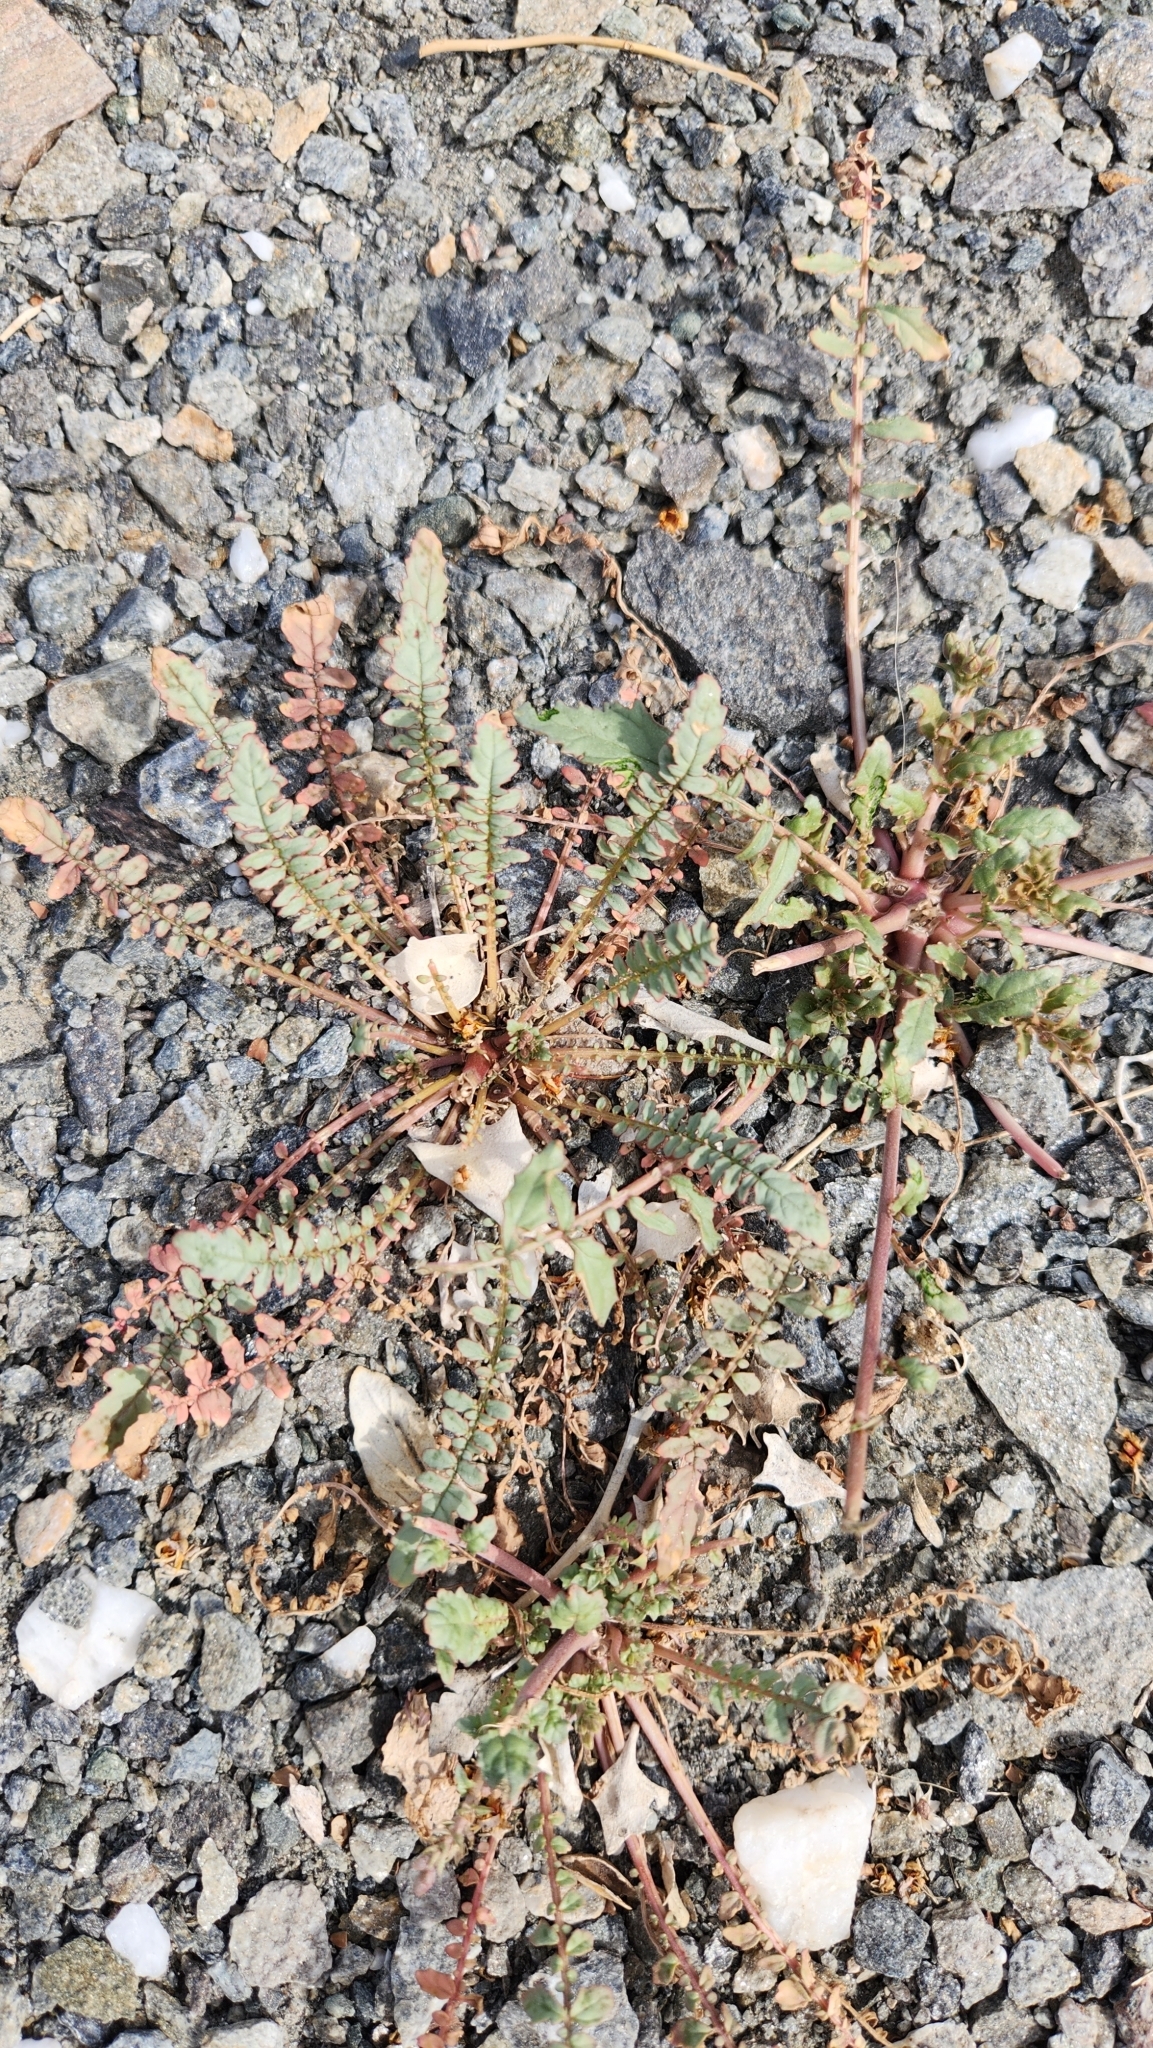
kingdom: Plantae
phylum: Tracheophyta
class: Magnoliopsida
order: Myrtales
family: Onagraceae
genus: Chylismia
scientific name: Chylismia claviformis
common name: Browneyes
